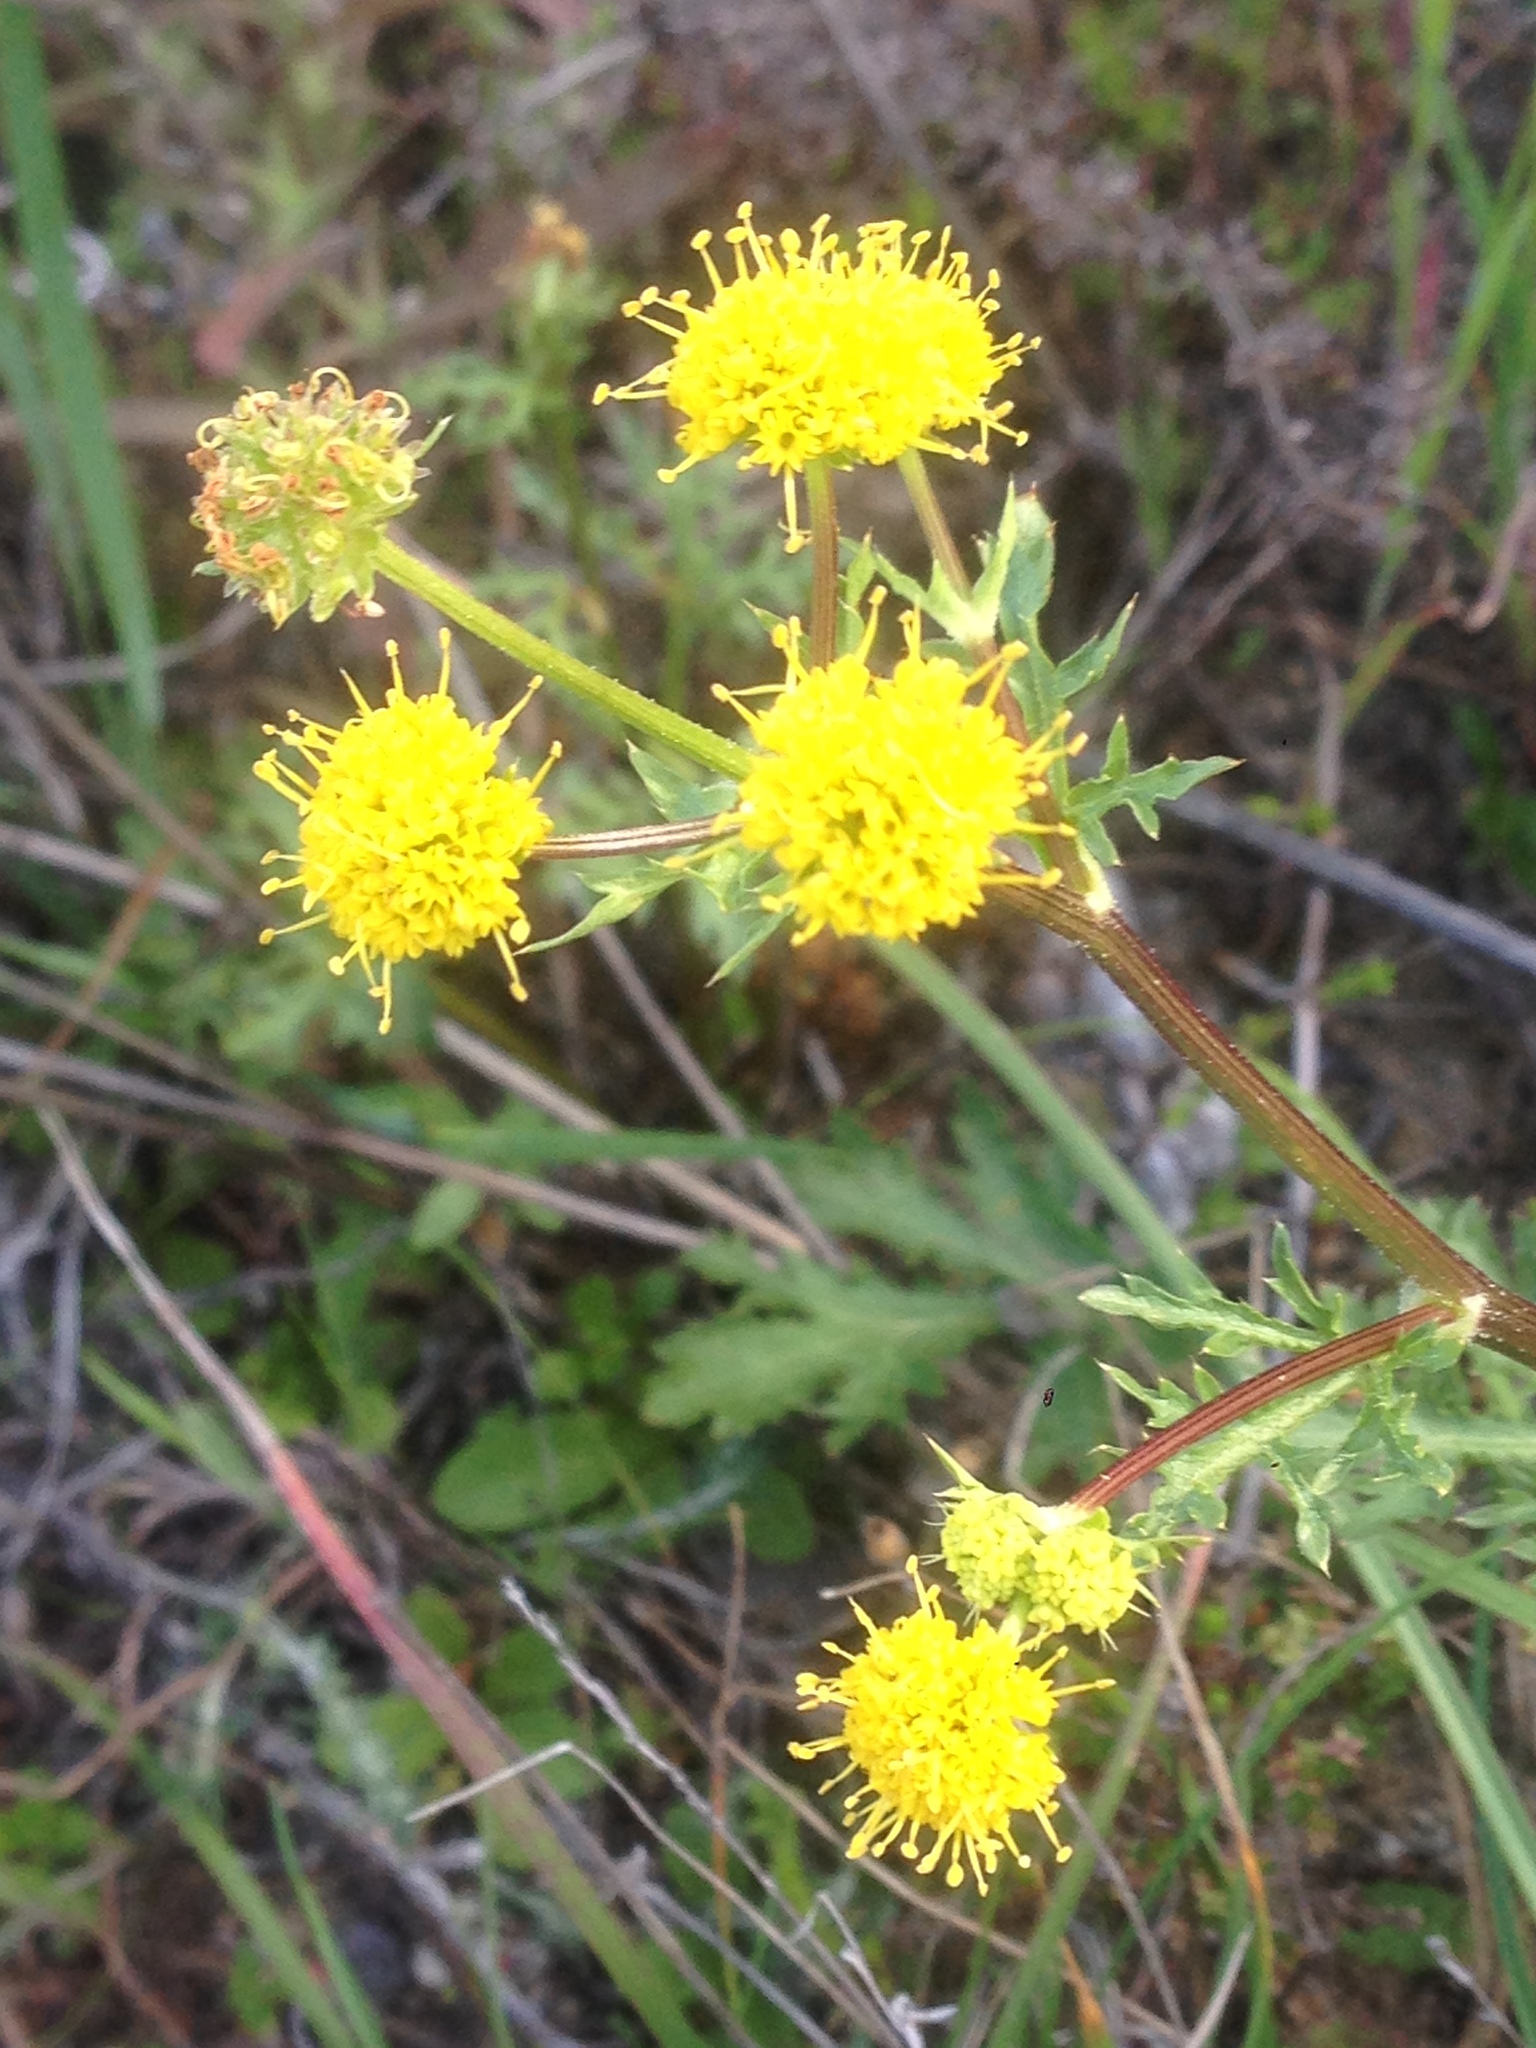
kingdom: Plantae
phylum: Tracheophyta
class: Magnoliopsida
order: Apiales
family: Apiaceae
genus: Sanicula
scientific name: Sanicula arguta
